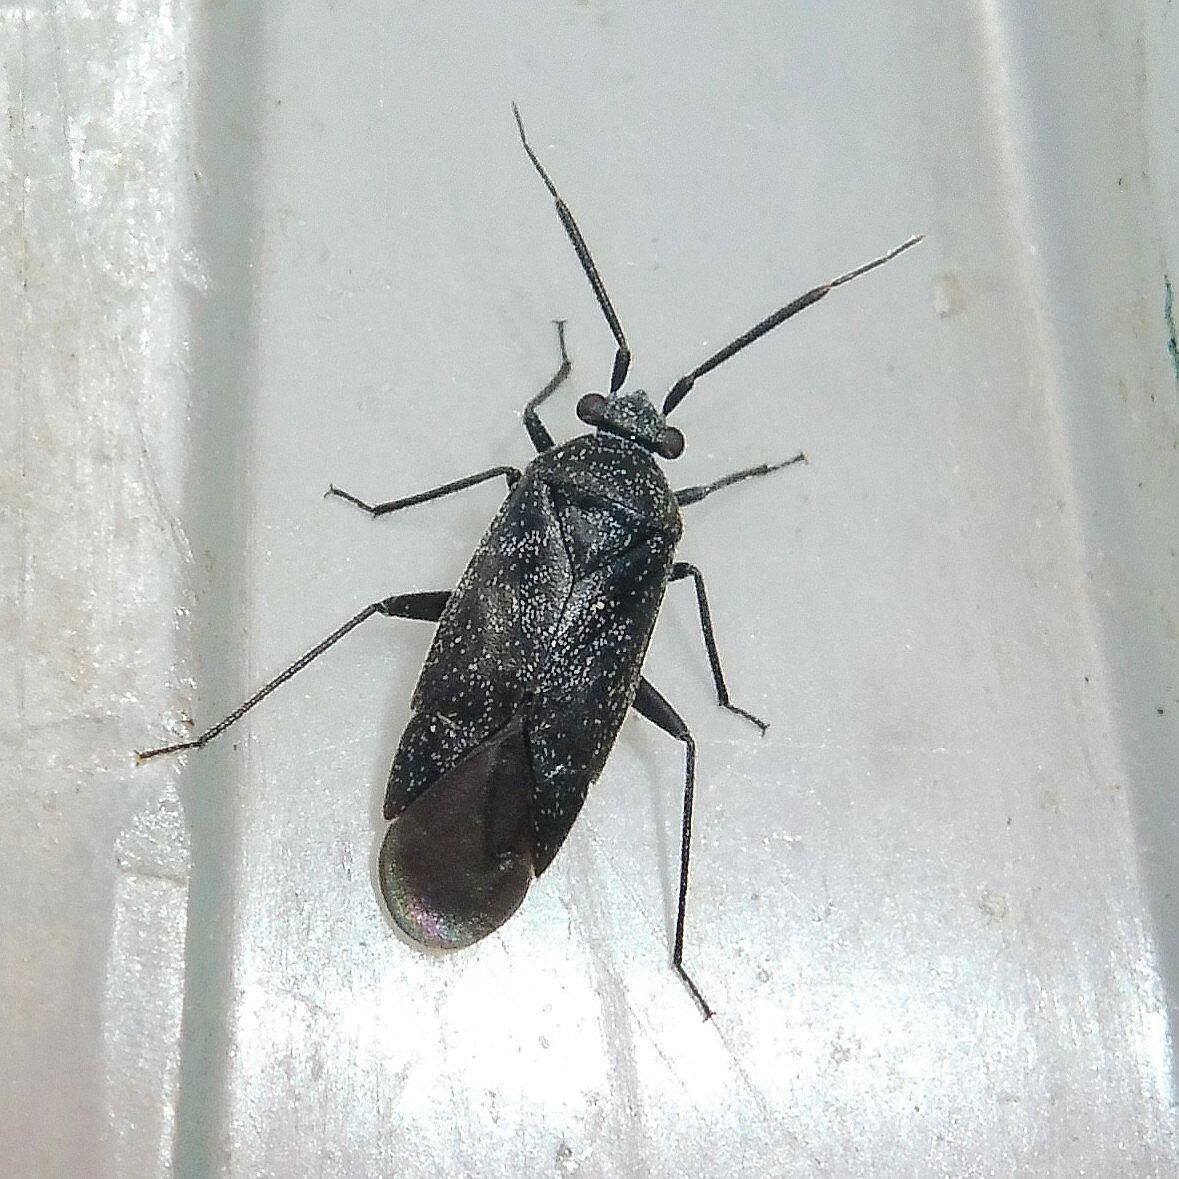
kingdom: Animalia
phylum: Arthropoda
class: Insecta
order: Hemiptera
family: Miridae
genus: Heterocordylus
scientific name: Heterocordylus genistae
